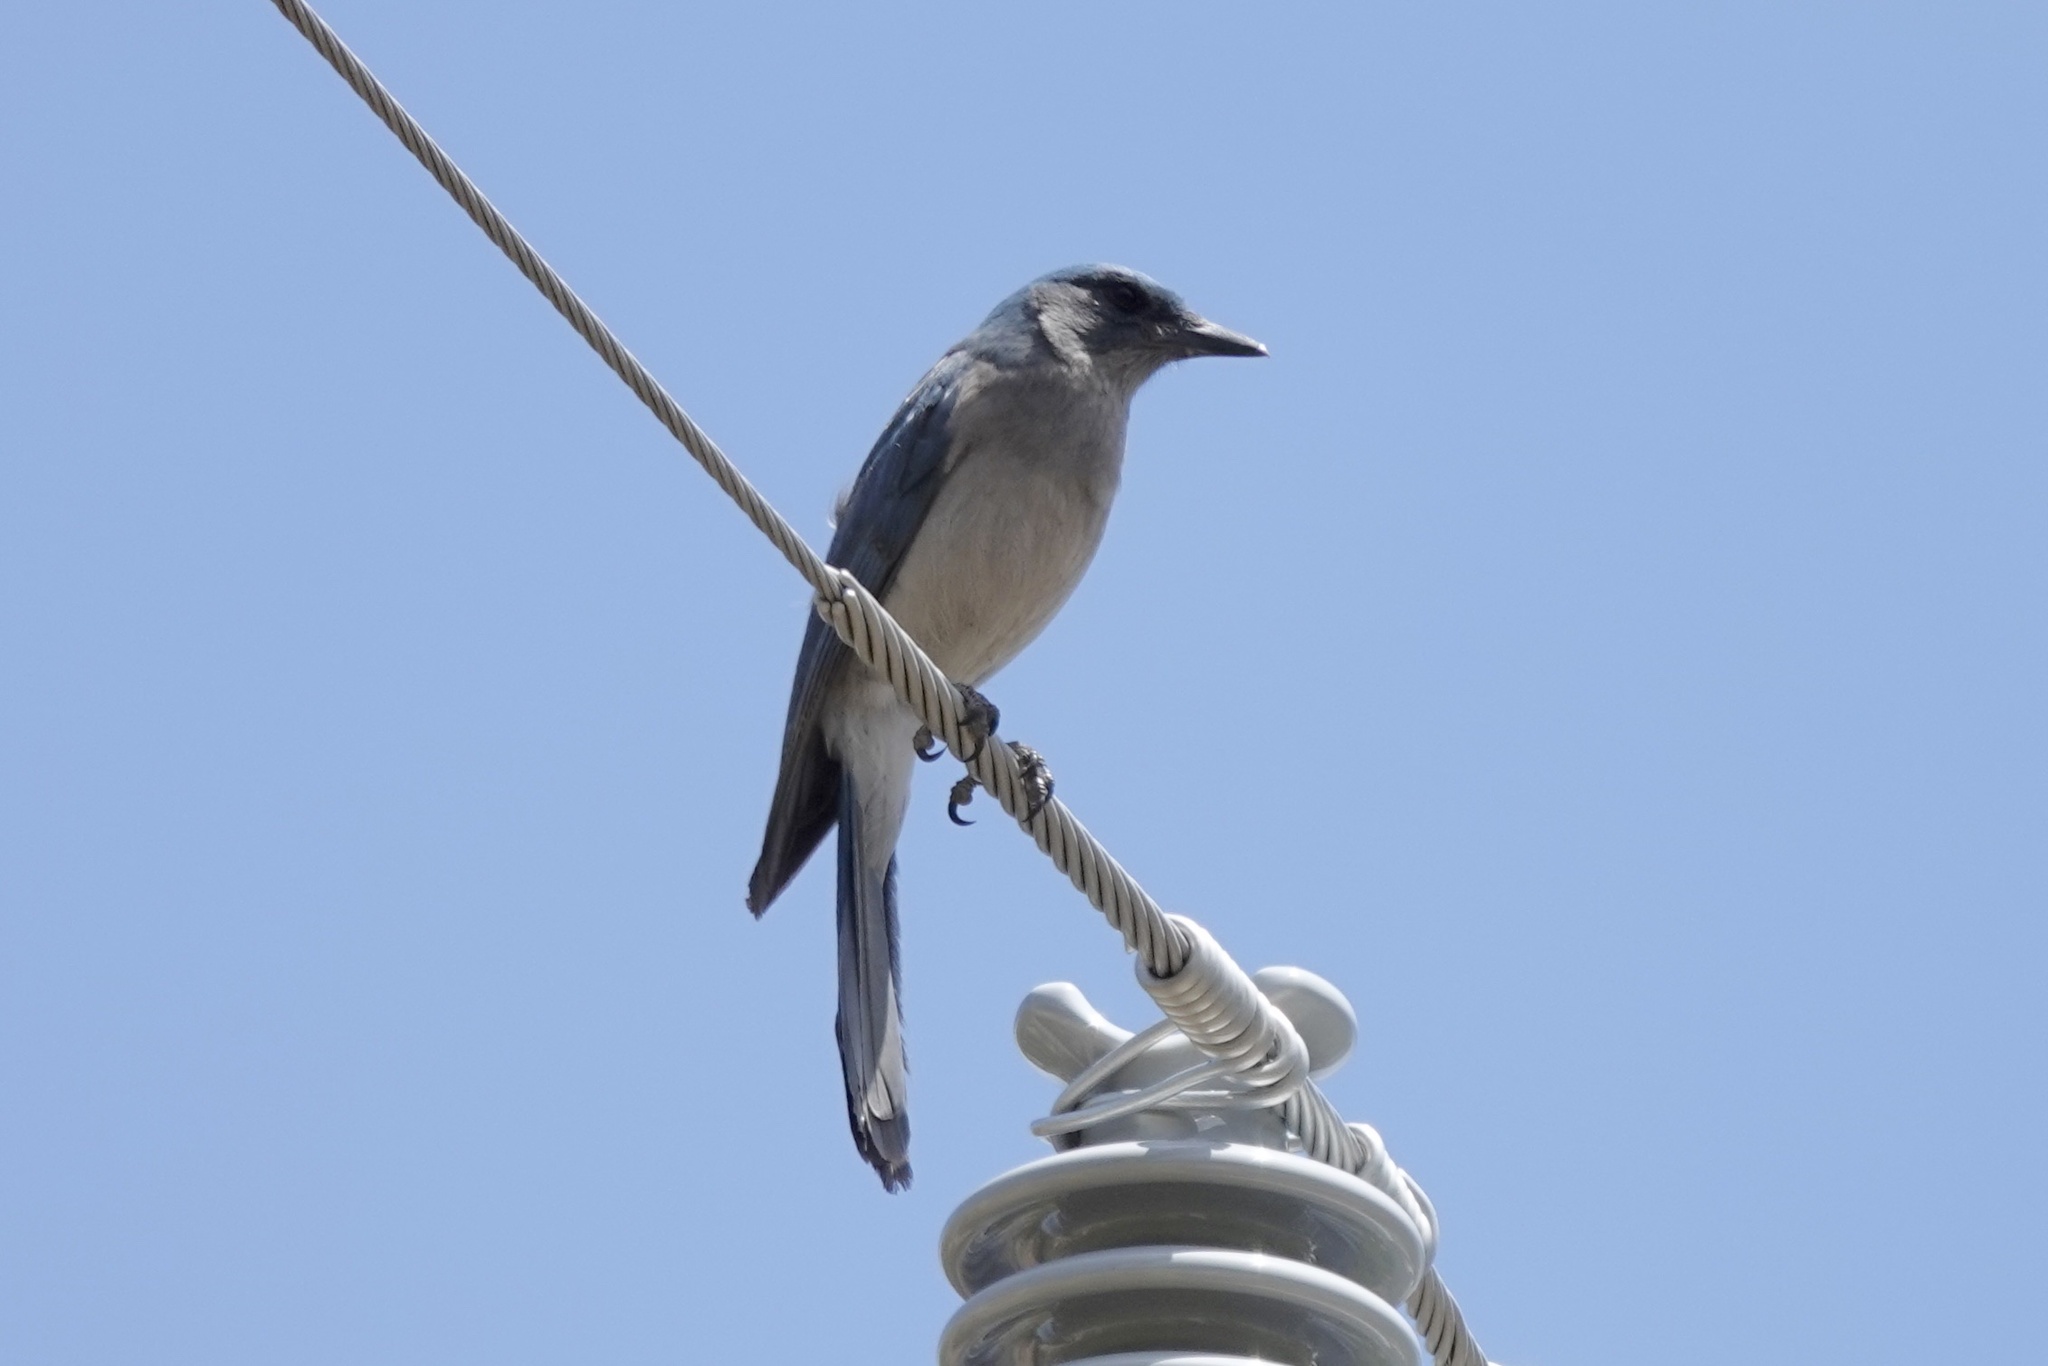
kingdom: Animalia
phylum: Chordata
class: Aves
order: Passeriformes
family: Corvidae
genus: Aphelocoma
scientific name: Aphelocoma wollweberi
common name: Mexican jay
